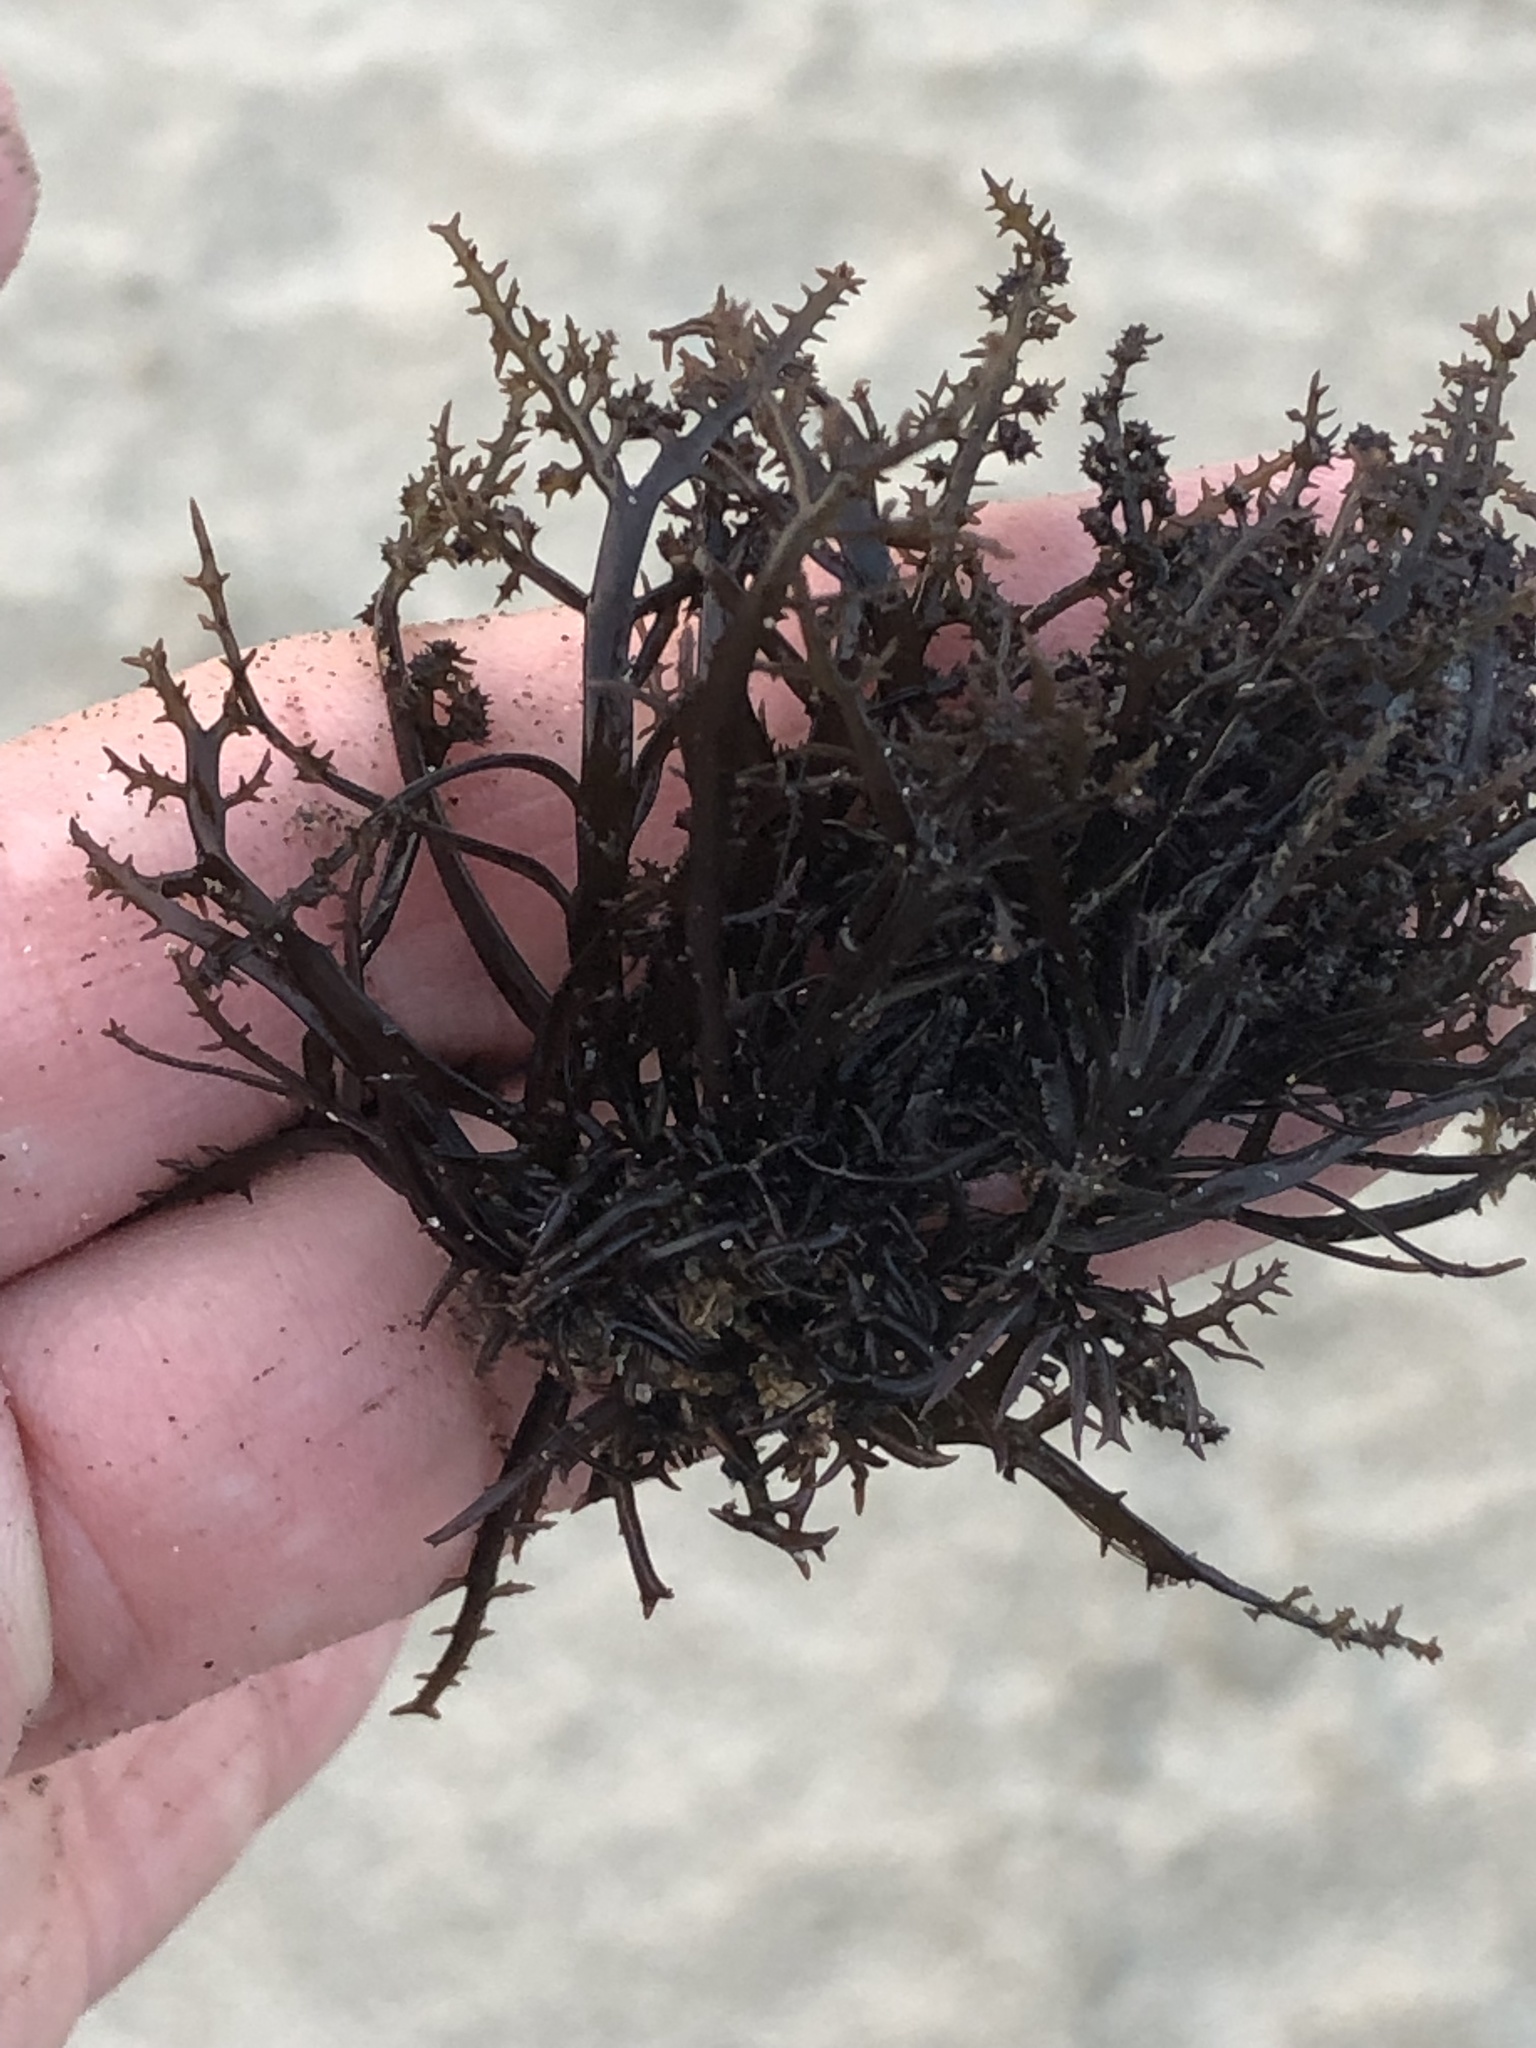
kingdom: Plantae
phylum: Rhodophyta
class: Florideophyceae
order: Gigartinales
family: Gigartinaceae
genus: Chondracanthus
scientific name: Chondracanthus canaliculatus
